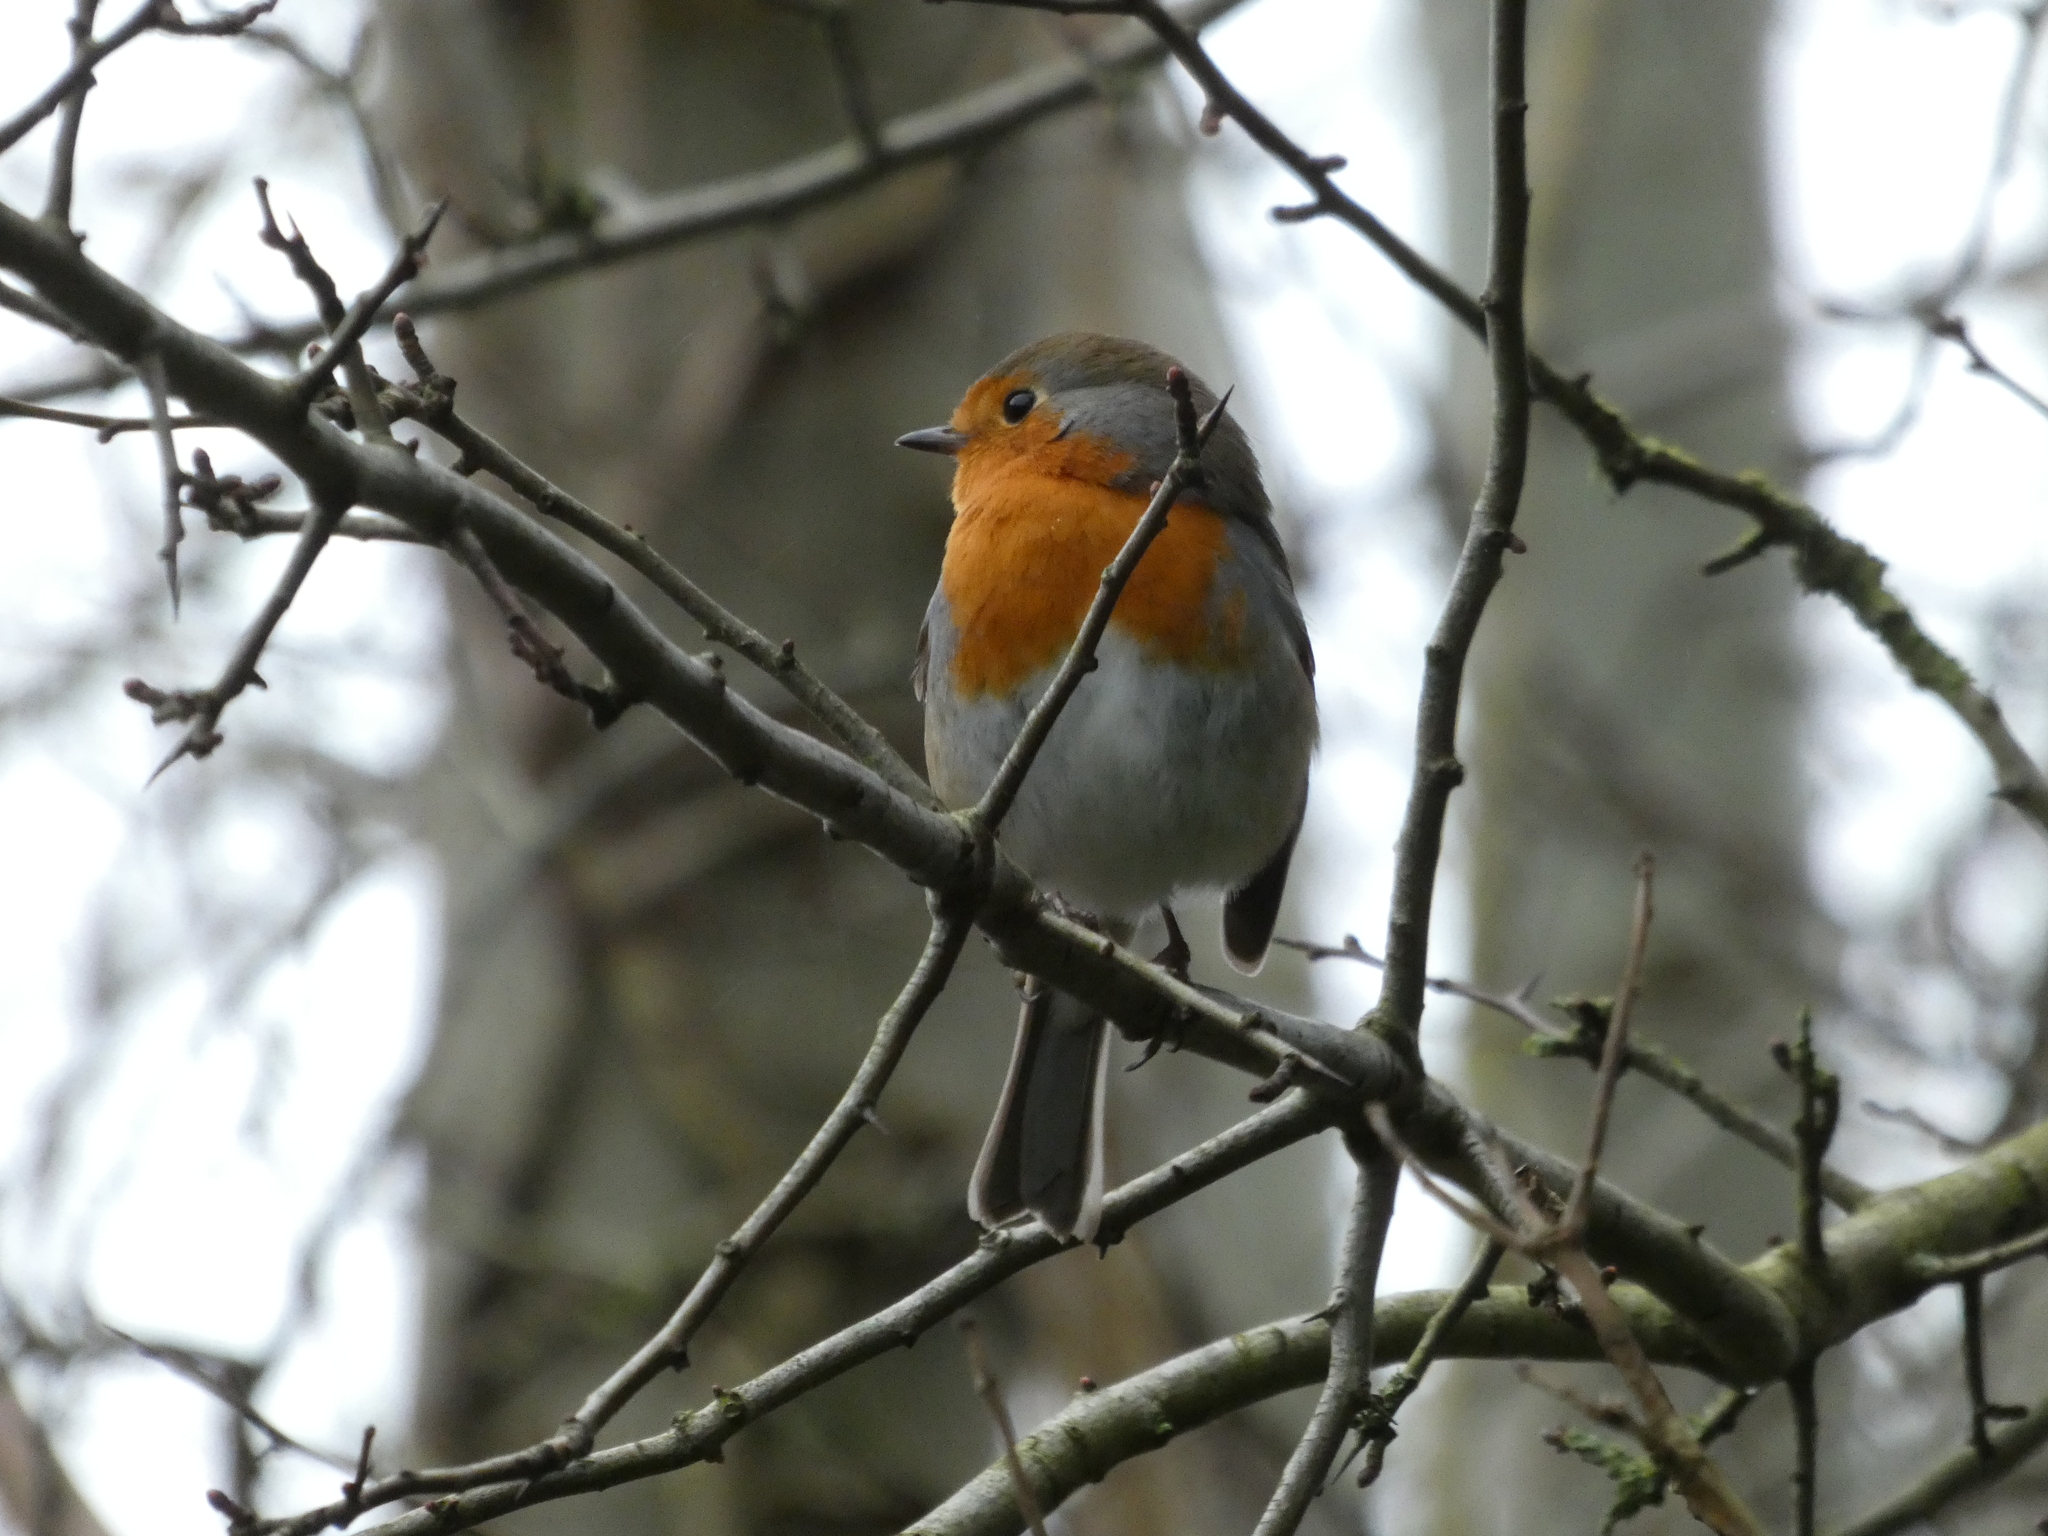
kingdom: Animalia
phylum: Chordata
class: Aves
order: Passeriformes
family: Muscicapidae
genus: Erithacus
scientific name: Erithacus rubecula
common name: European robin
